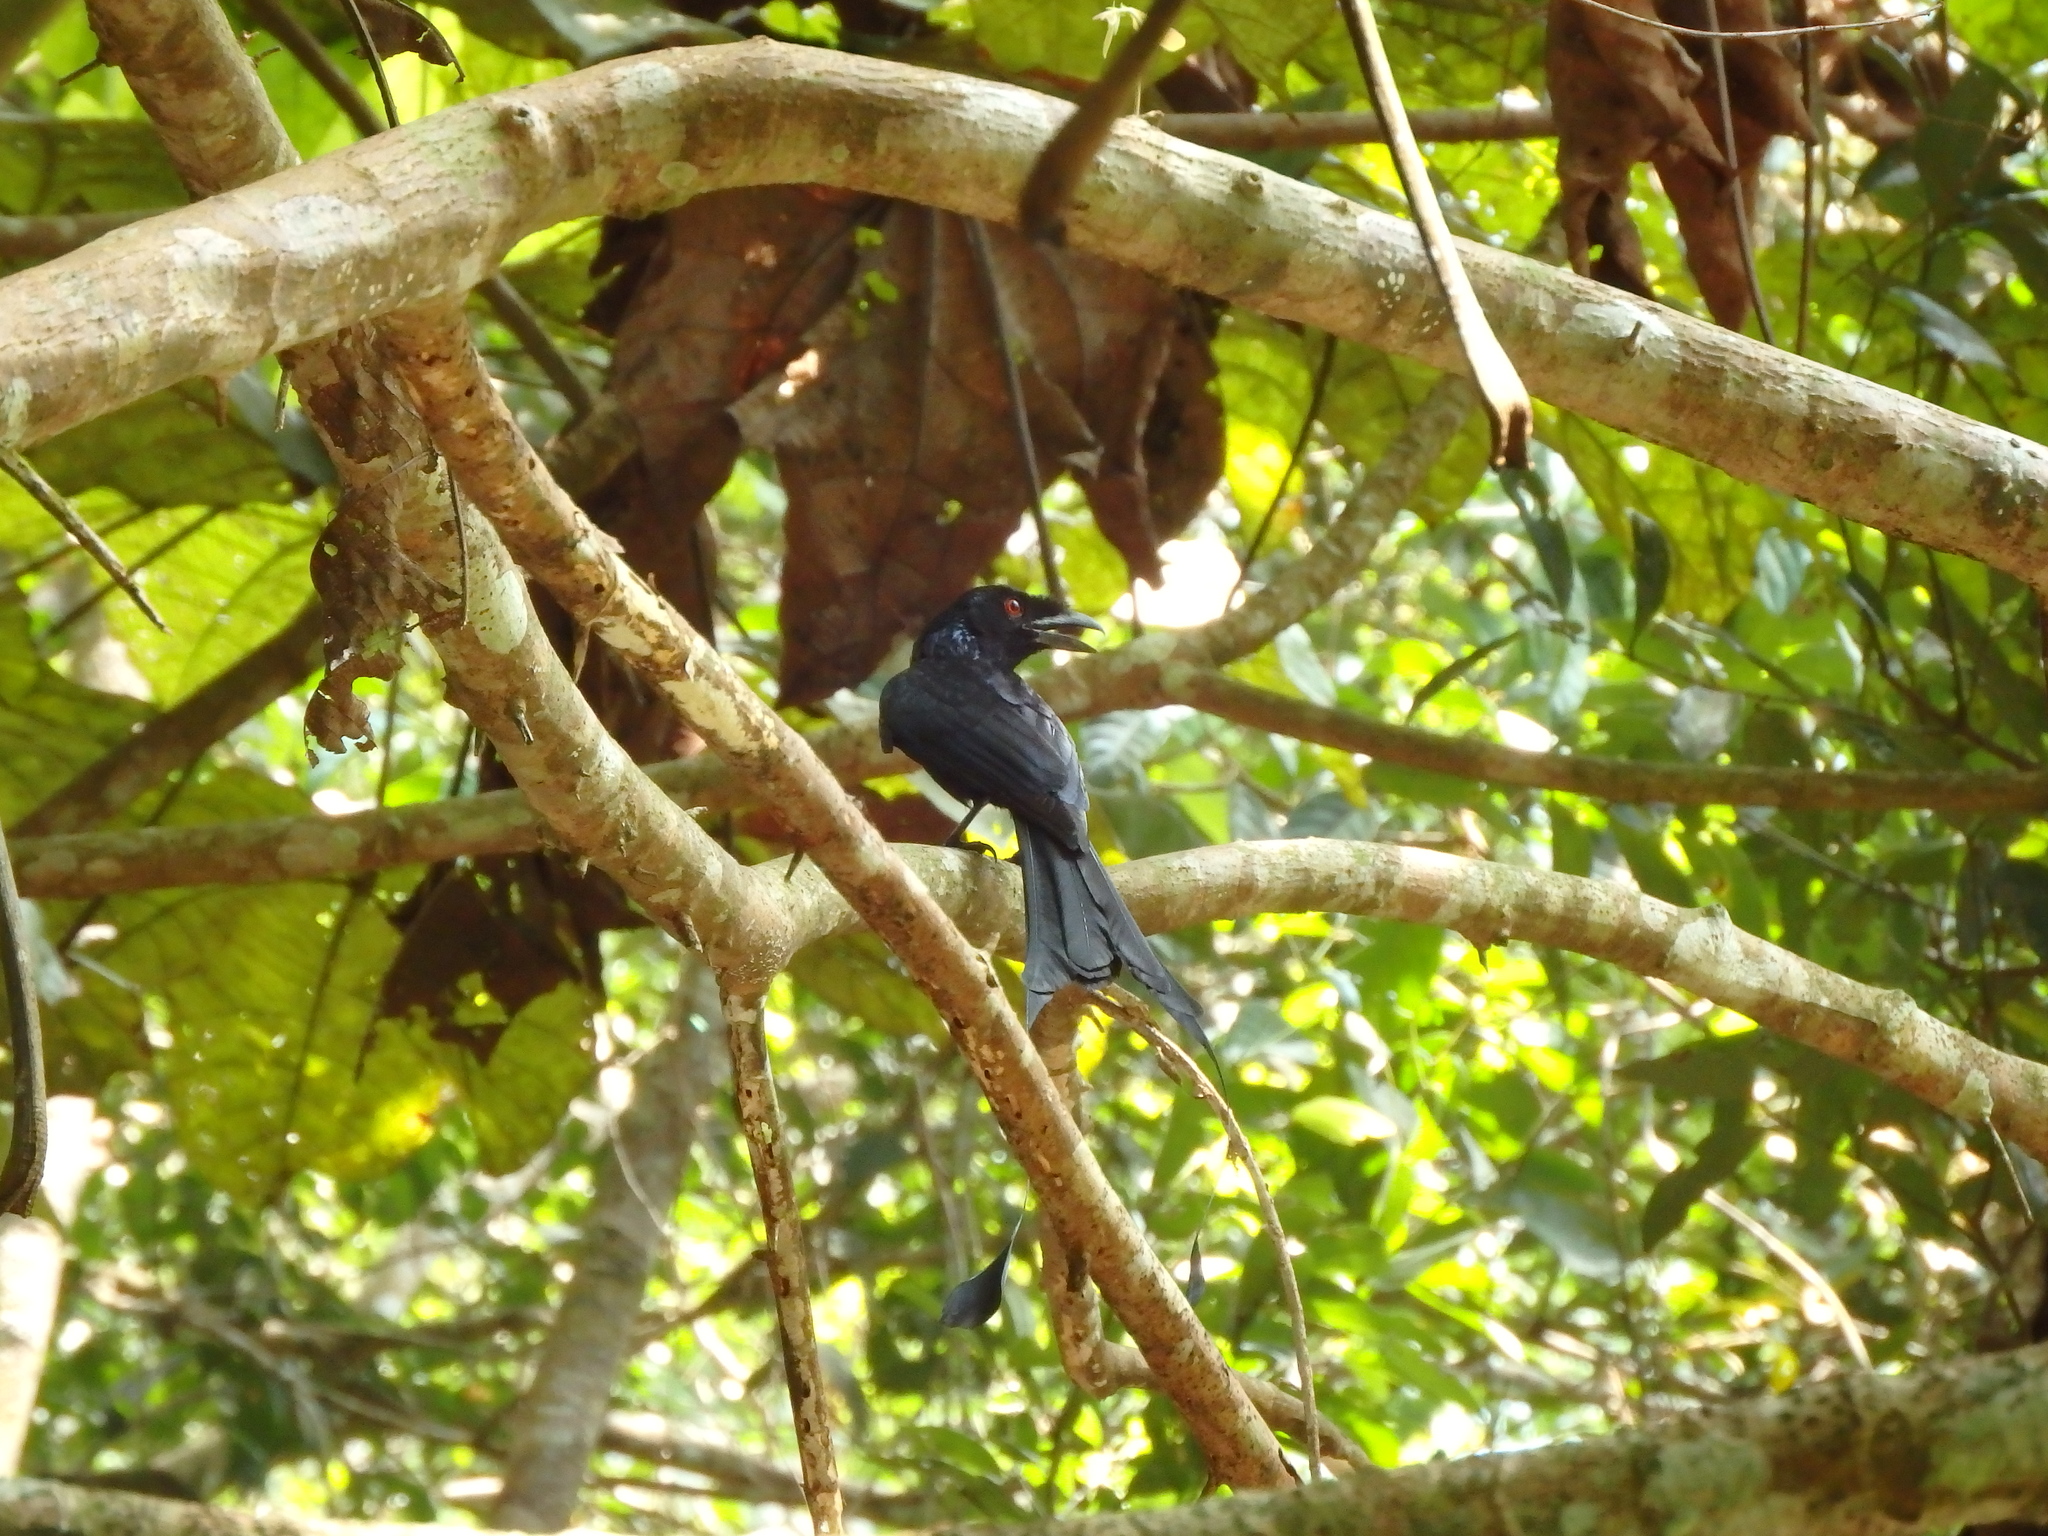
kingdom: Animalia
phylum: Chordata
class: Aves
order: Passeriformes
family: Dicruridae
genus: Dicrurus
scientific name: Dicrurus paradiseus
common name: Greater racket-tailed drongo
